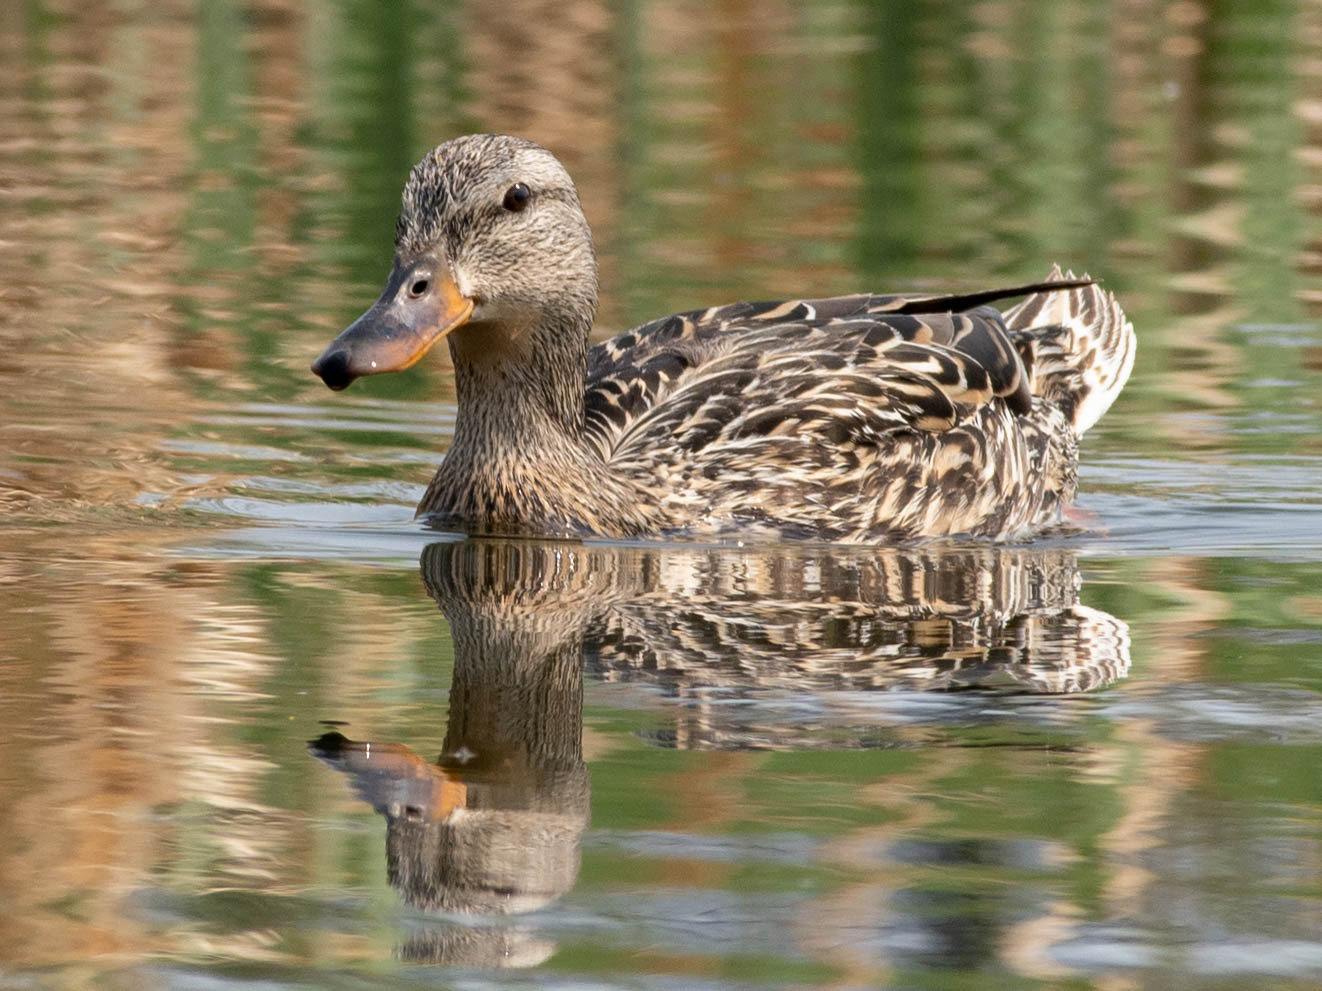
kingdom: Animalia
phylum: Chordata
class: Aves
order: Anseriformes
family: Anatidae
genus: Anas
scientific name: Anas platyrhynchos
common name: Mallard
